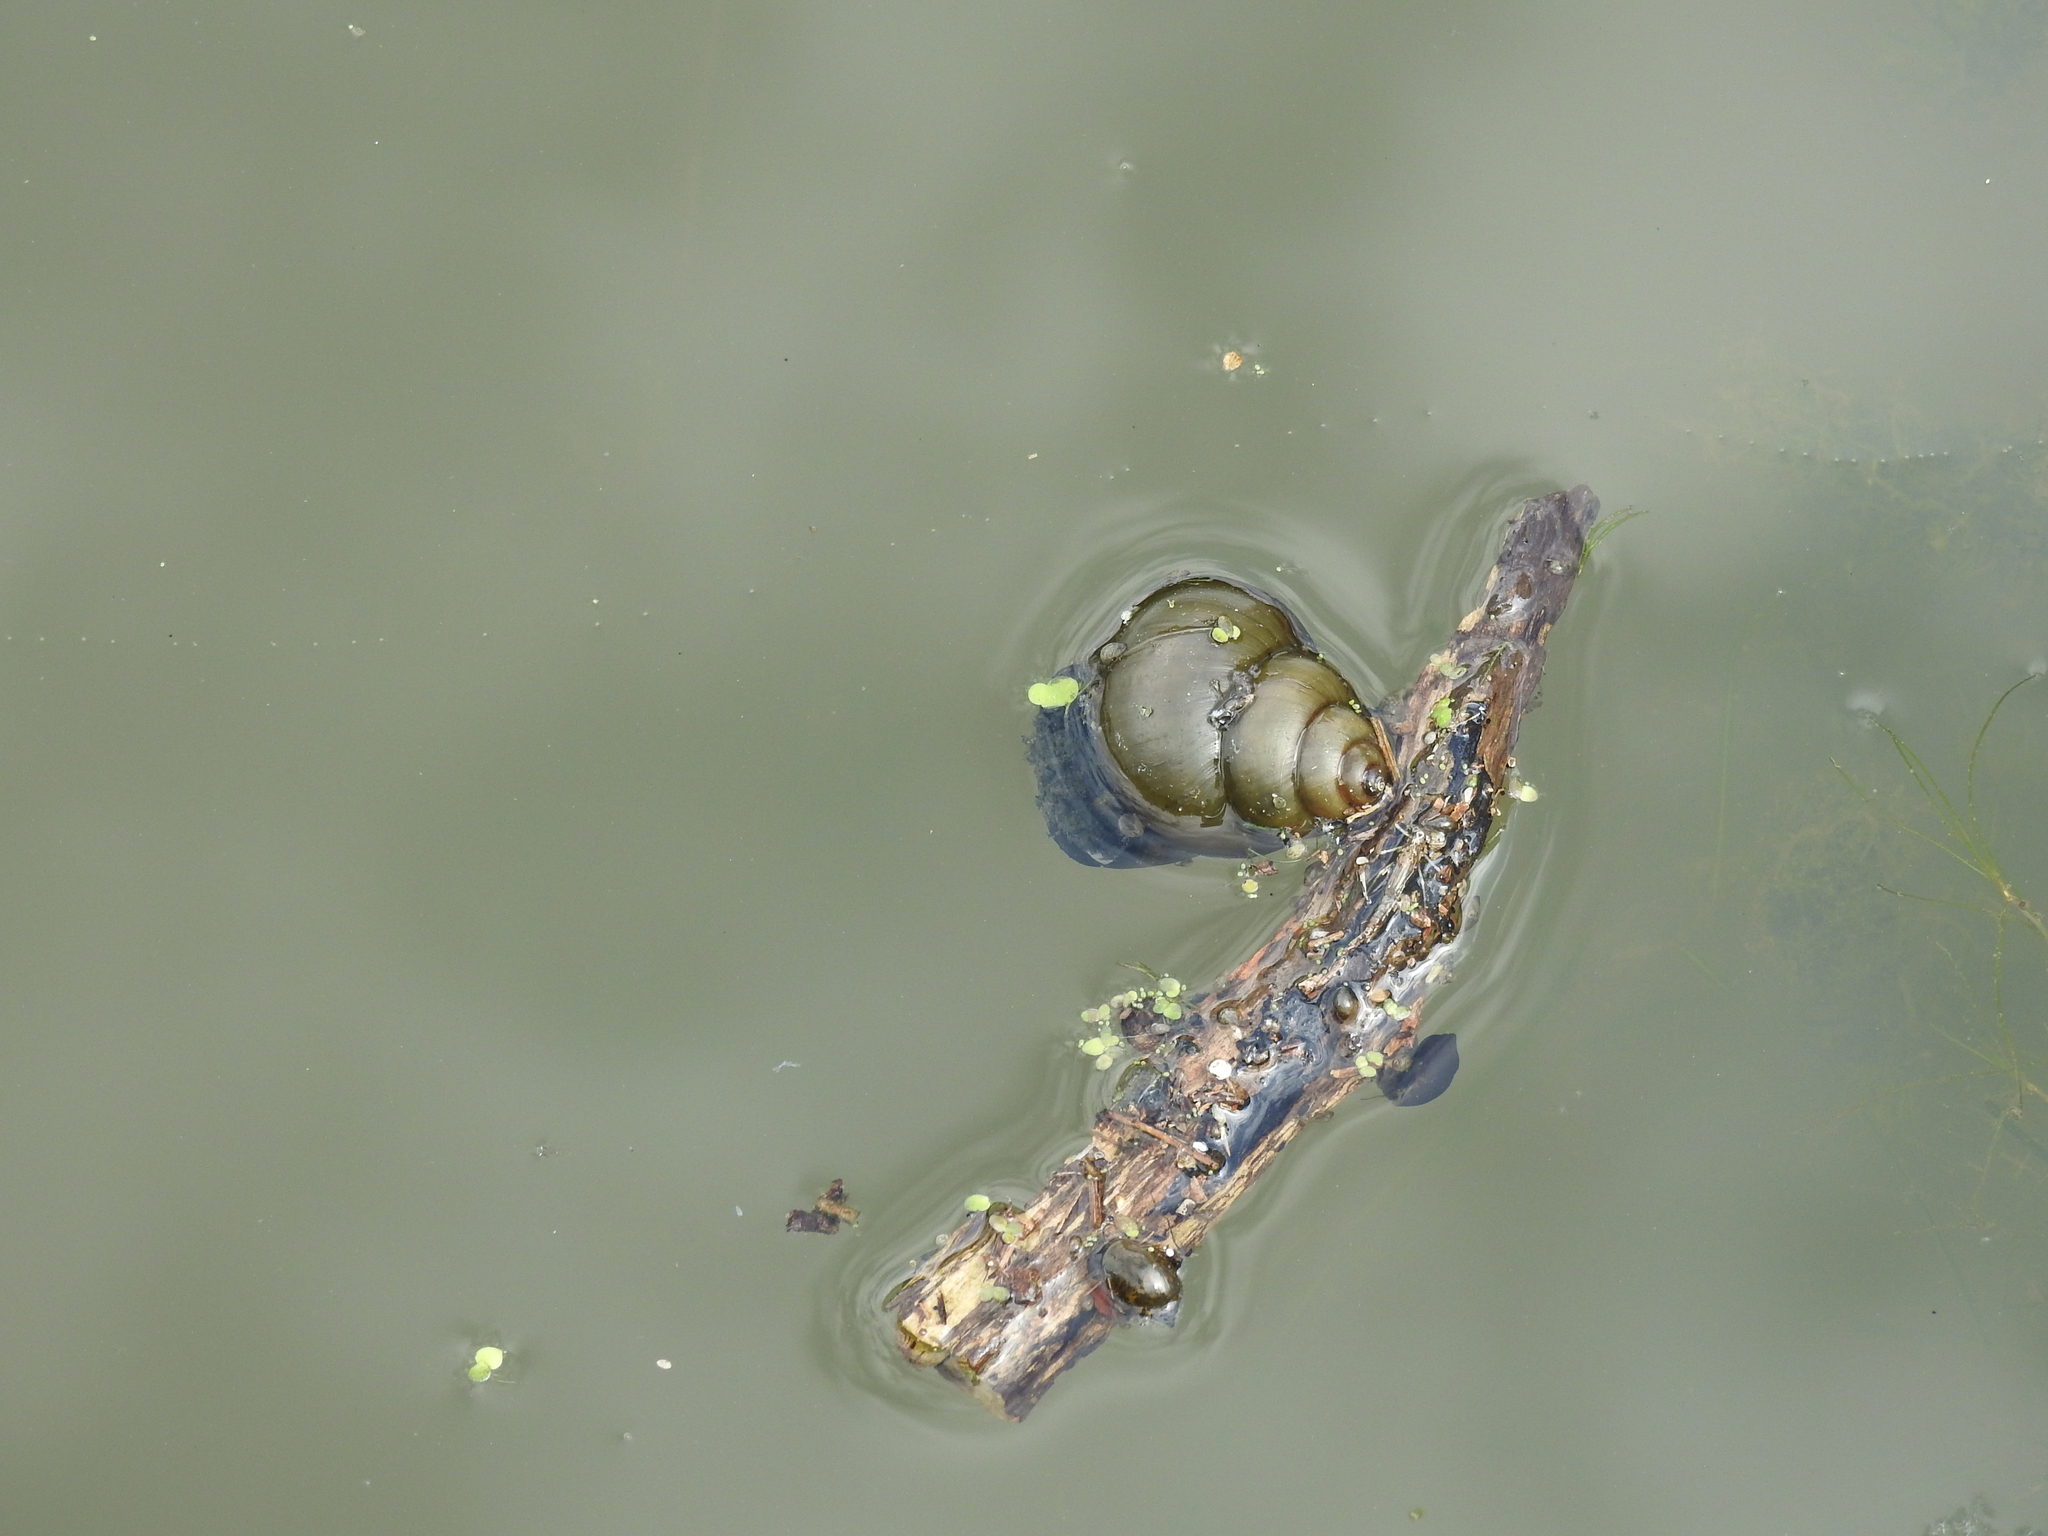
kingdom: Animalia
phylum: Mollusca
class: Gastropoda
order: Architaenioglossa
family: Viviparidae
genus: Cipangopaludina
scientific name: Cipangopaludina chinensis
